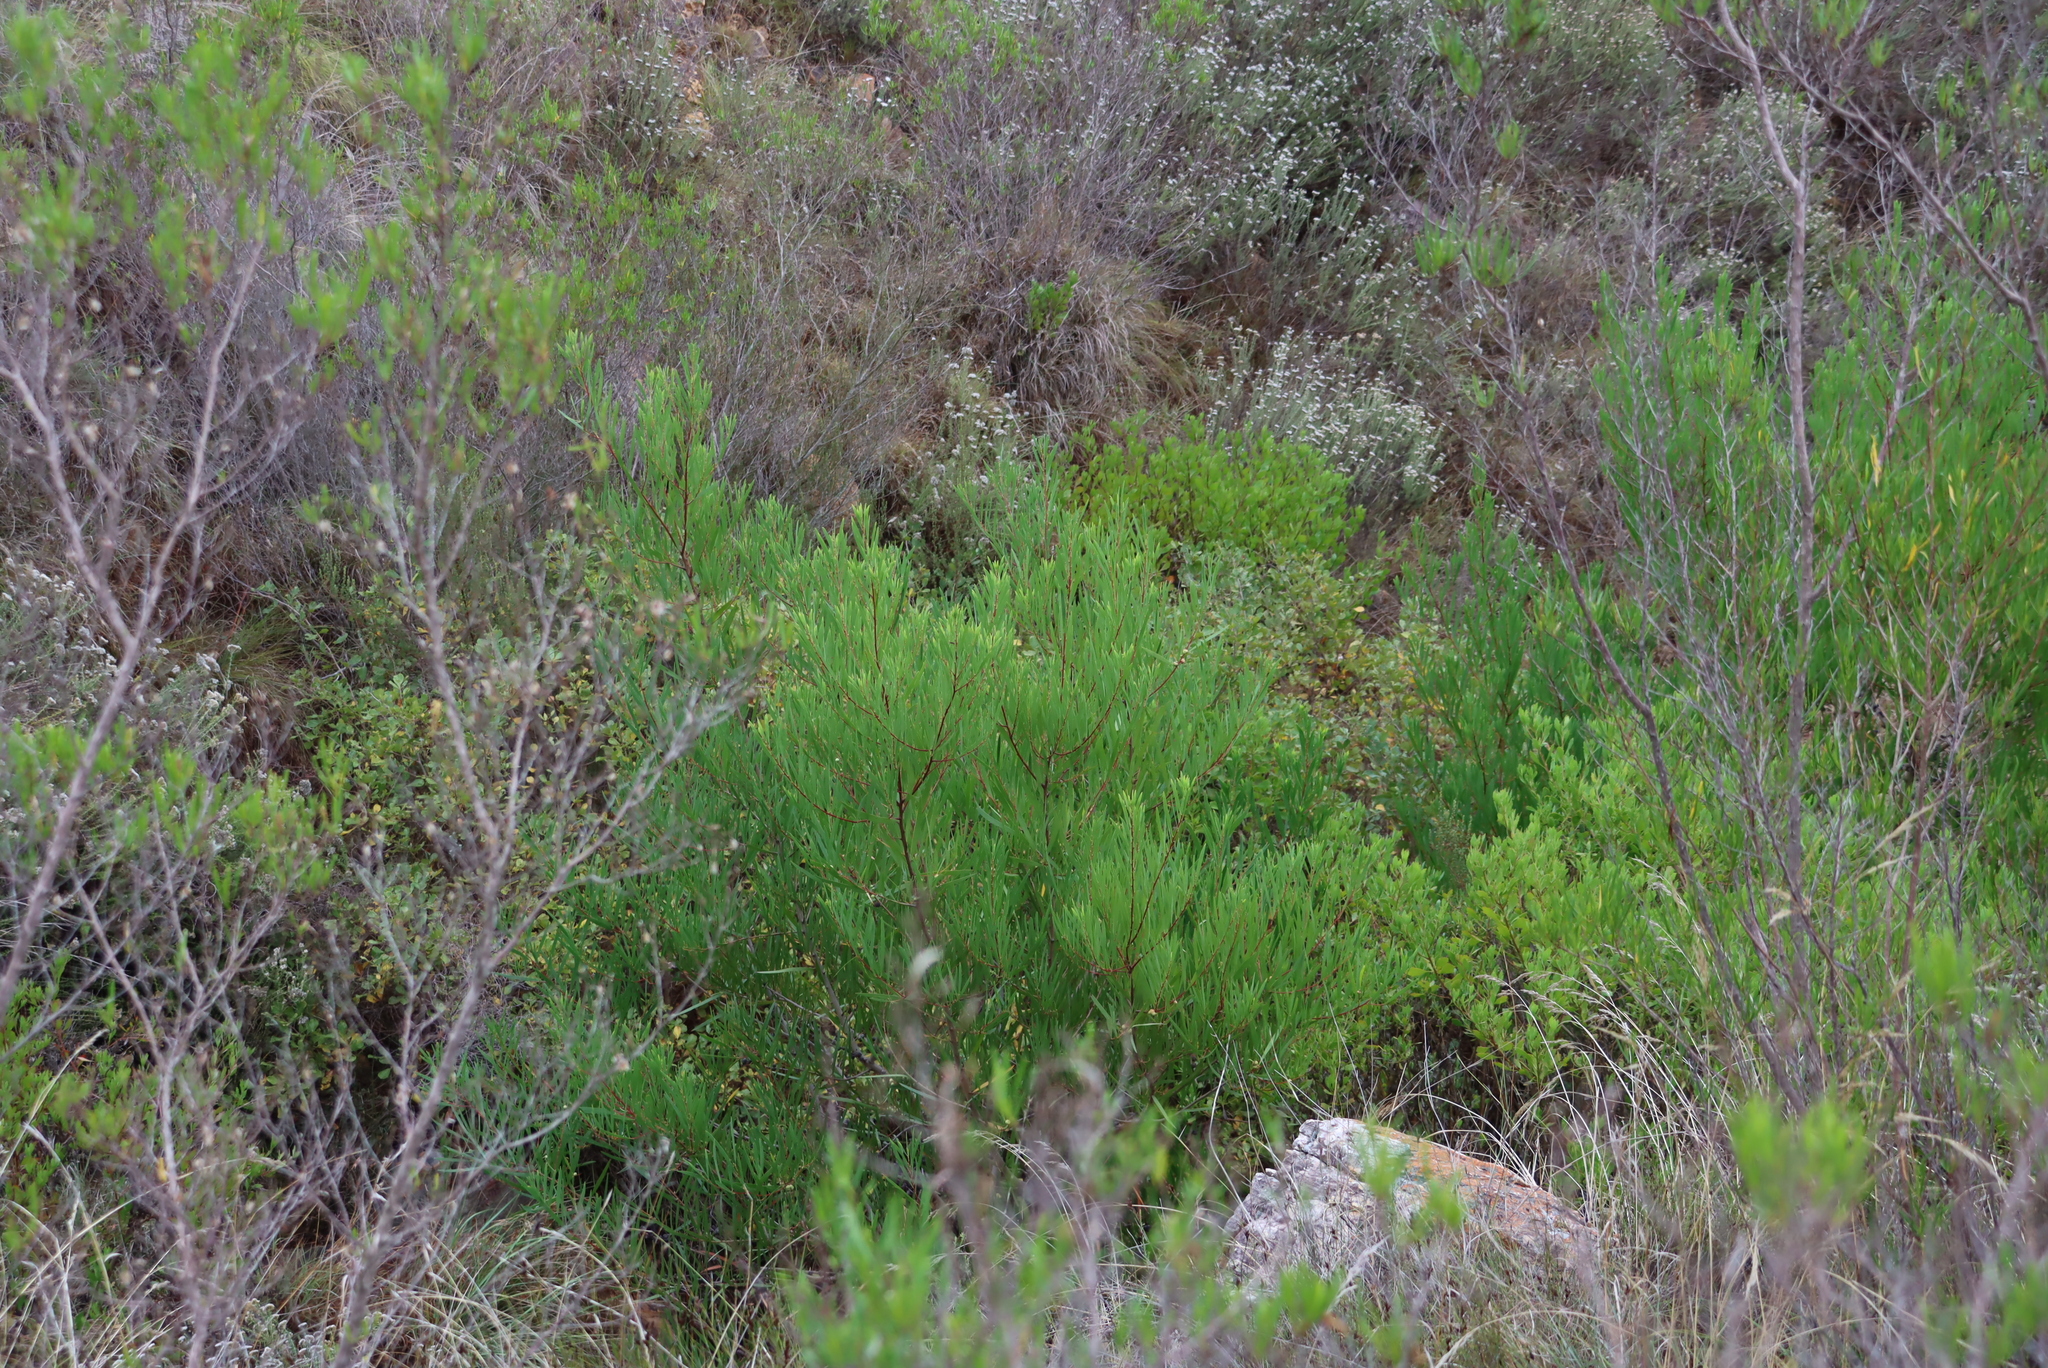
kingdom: Plantae
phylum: Tracheophyta
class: Magnoliopsida
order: Fabales
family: Fabaceae
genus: Acacia
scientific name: Acacia cyclops
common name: Coastal wattle
